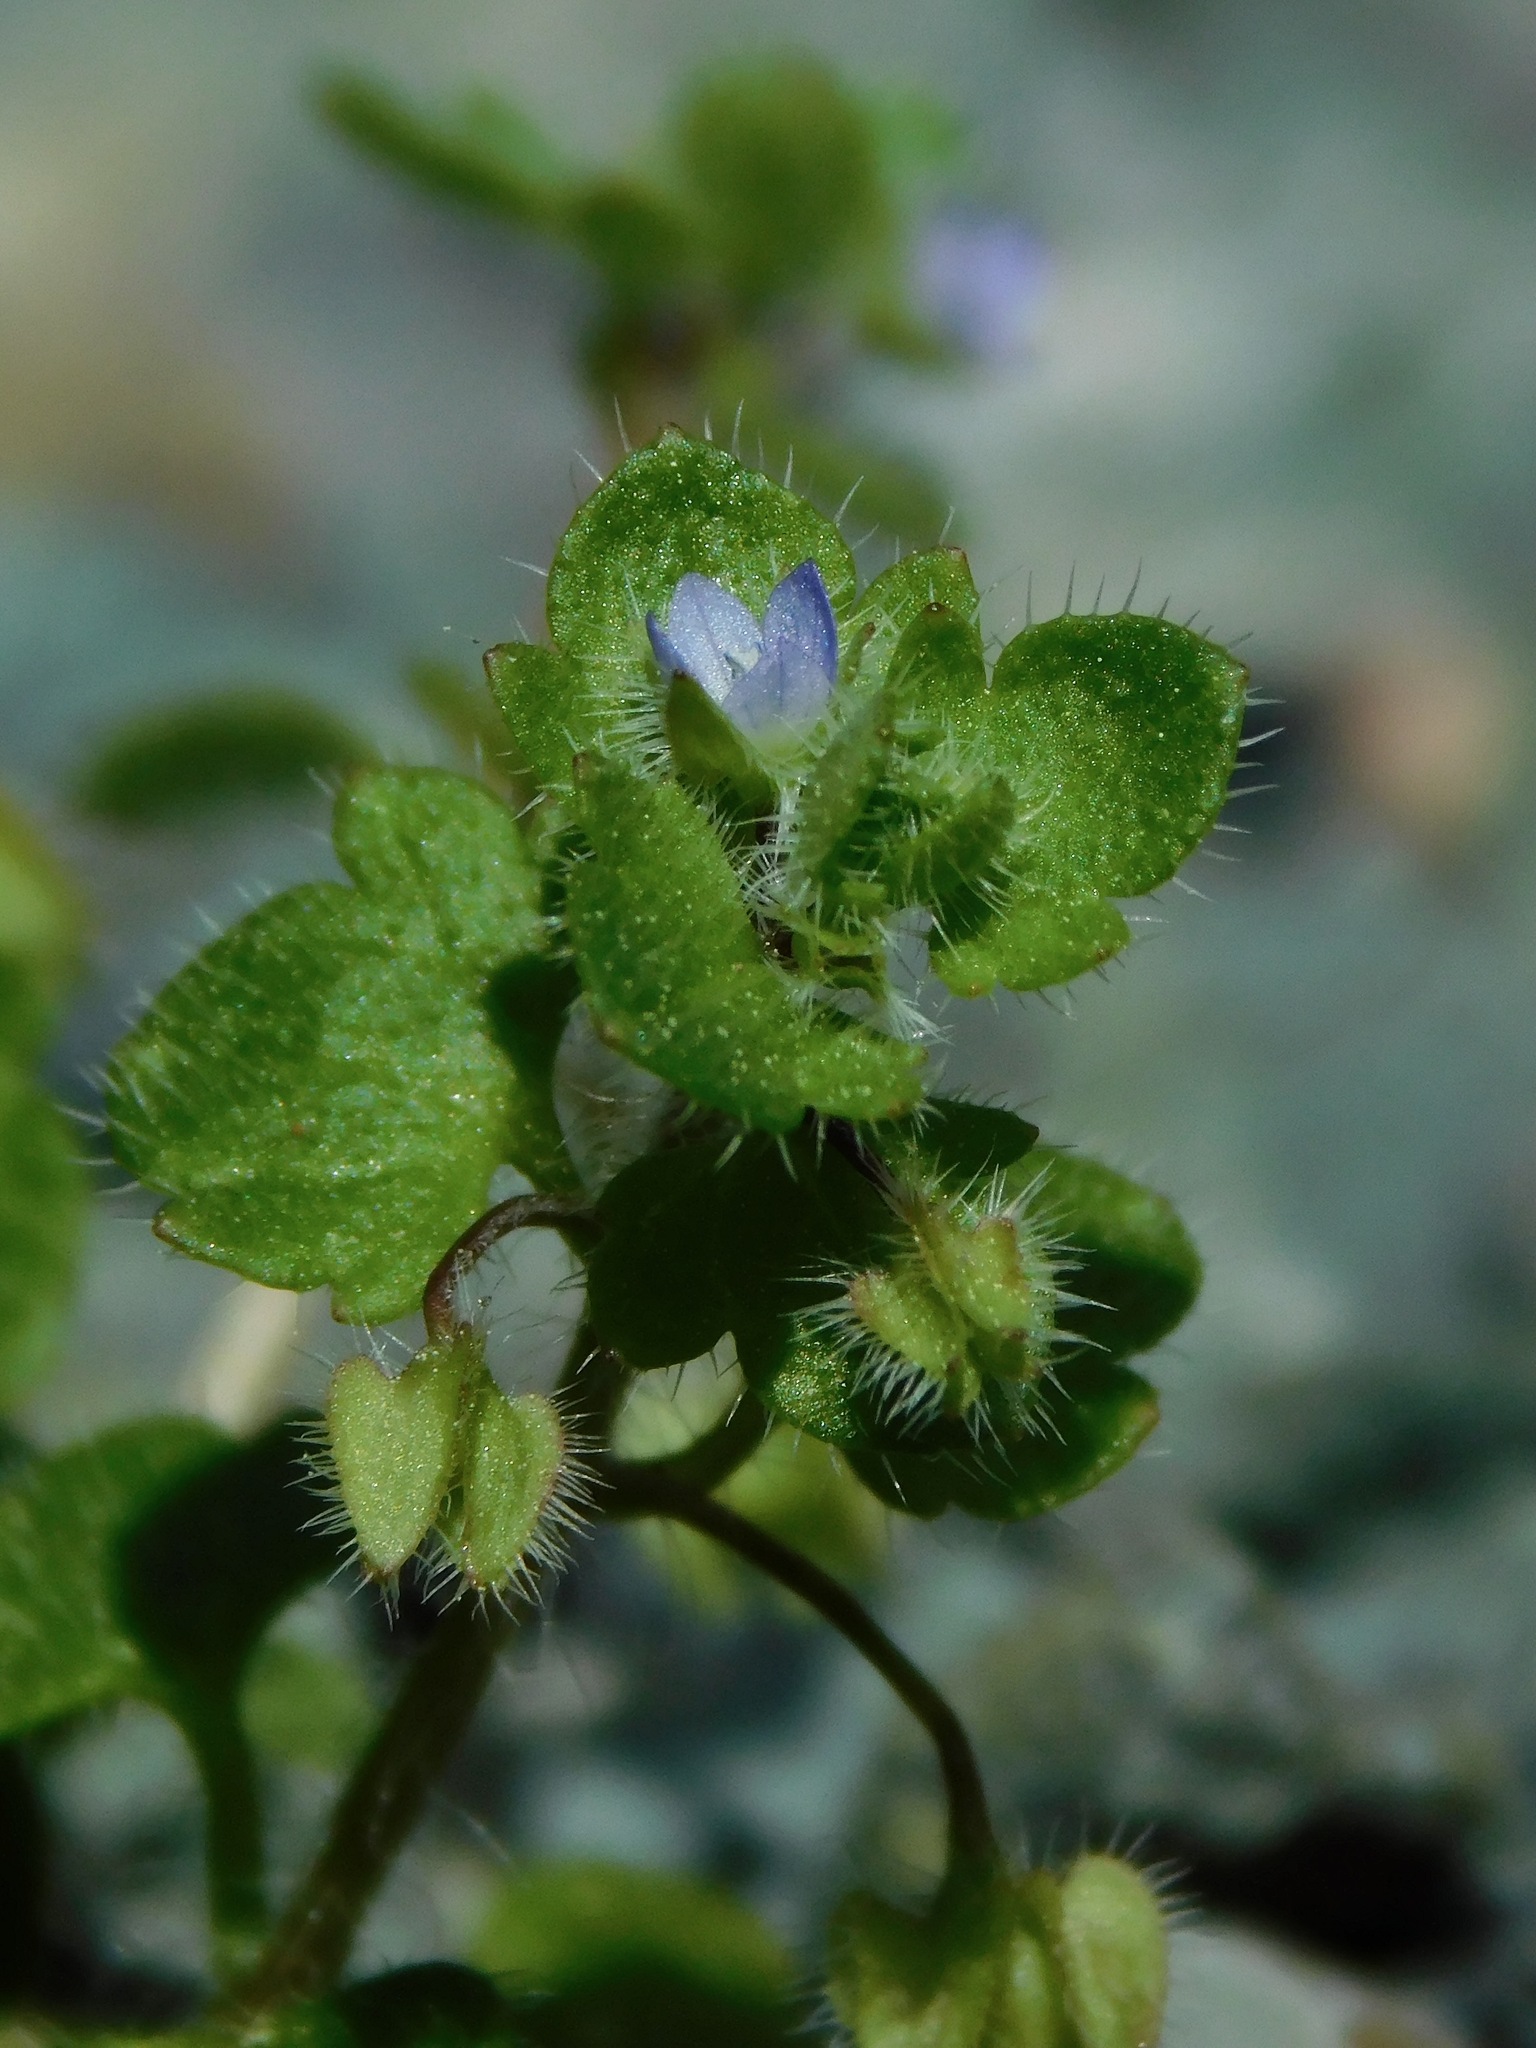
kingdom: Plantae
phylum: Tracheophyta
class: Magnoliopsida
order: Lamiales
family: Plantaginaceae
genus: Veronica
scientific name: Veronica hederifolia
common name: Ivy-leaved speedwell
